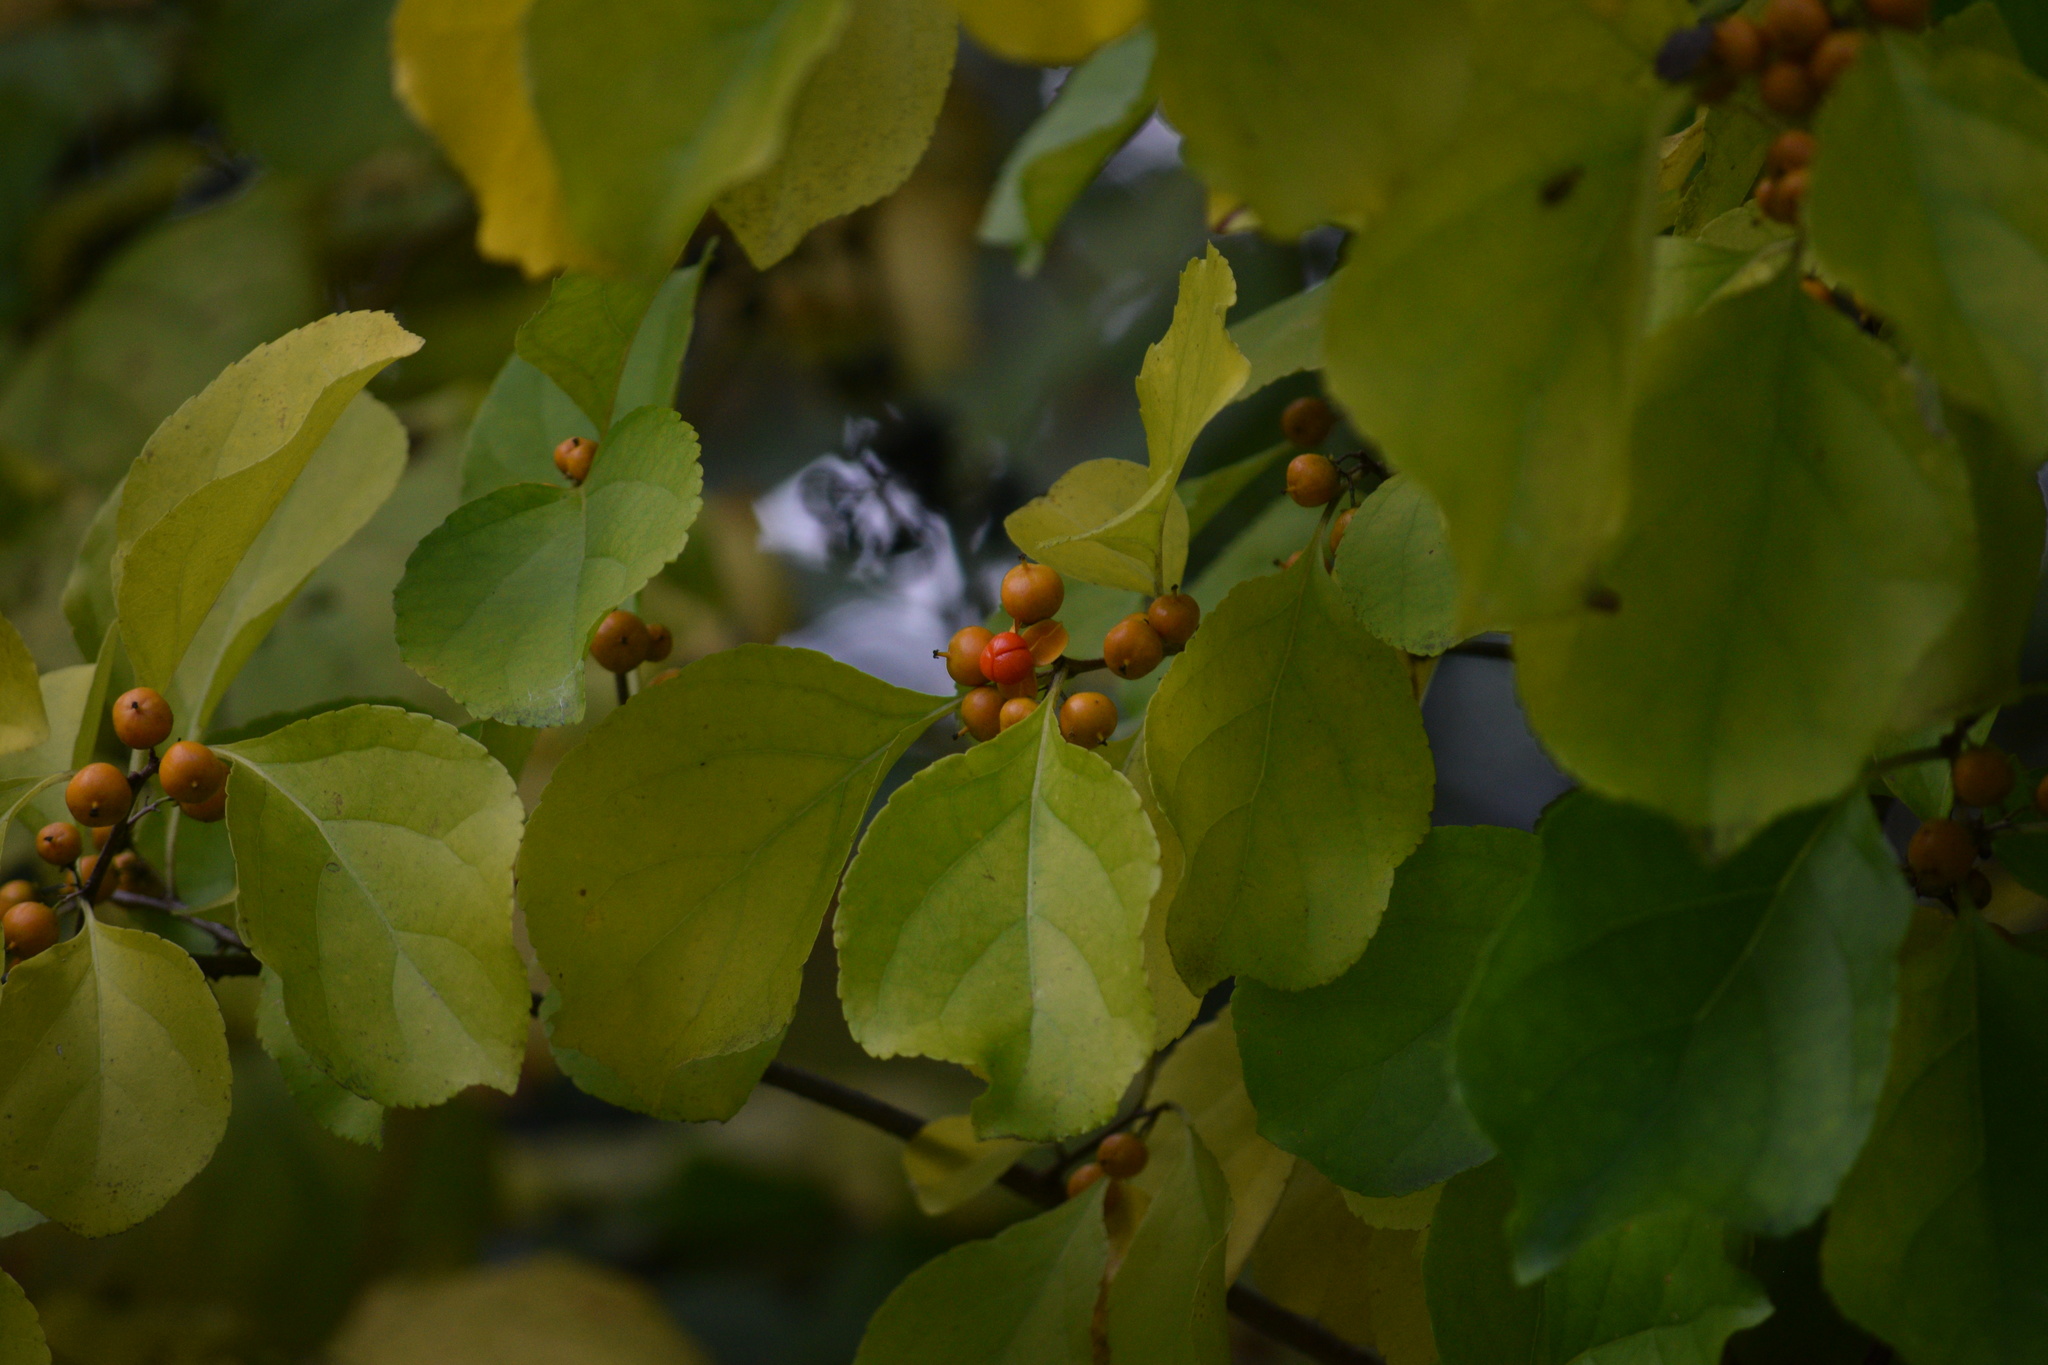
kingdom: Plantae
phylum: Tracheophyta
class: Magnoliopsida
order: Celastrales
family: Celastraceae
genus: Celastrus
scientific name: Celastrus orbiculatus
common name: Oriental bittersweet
